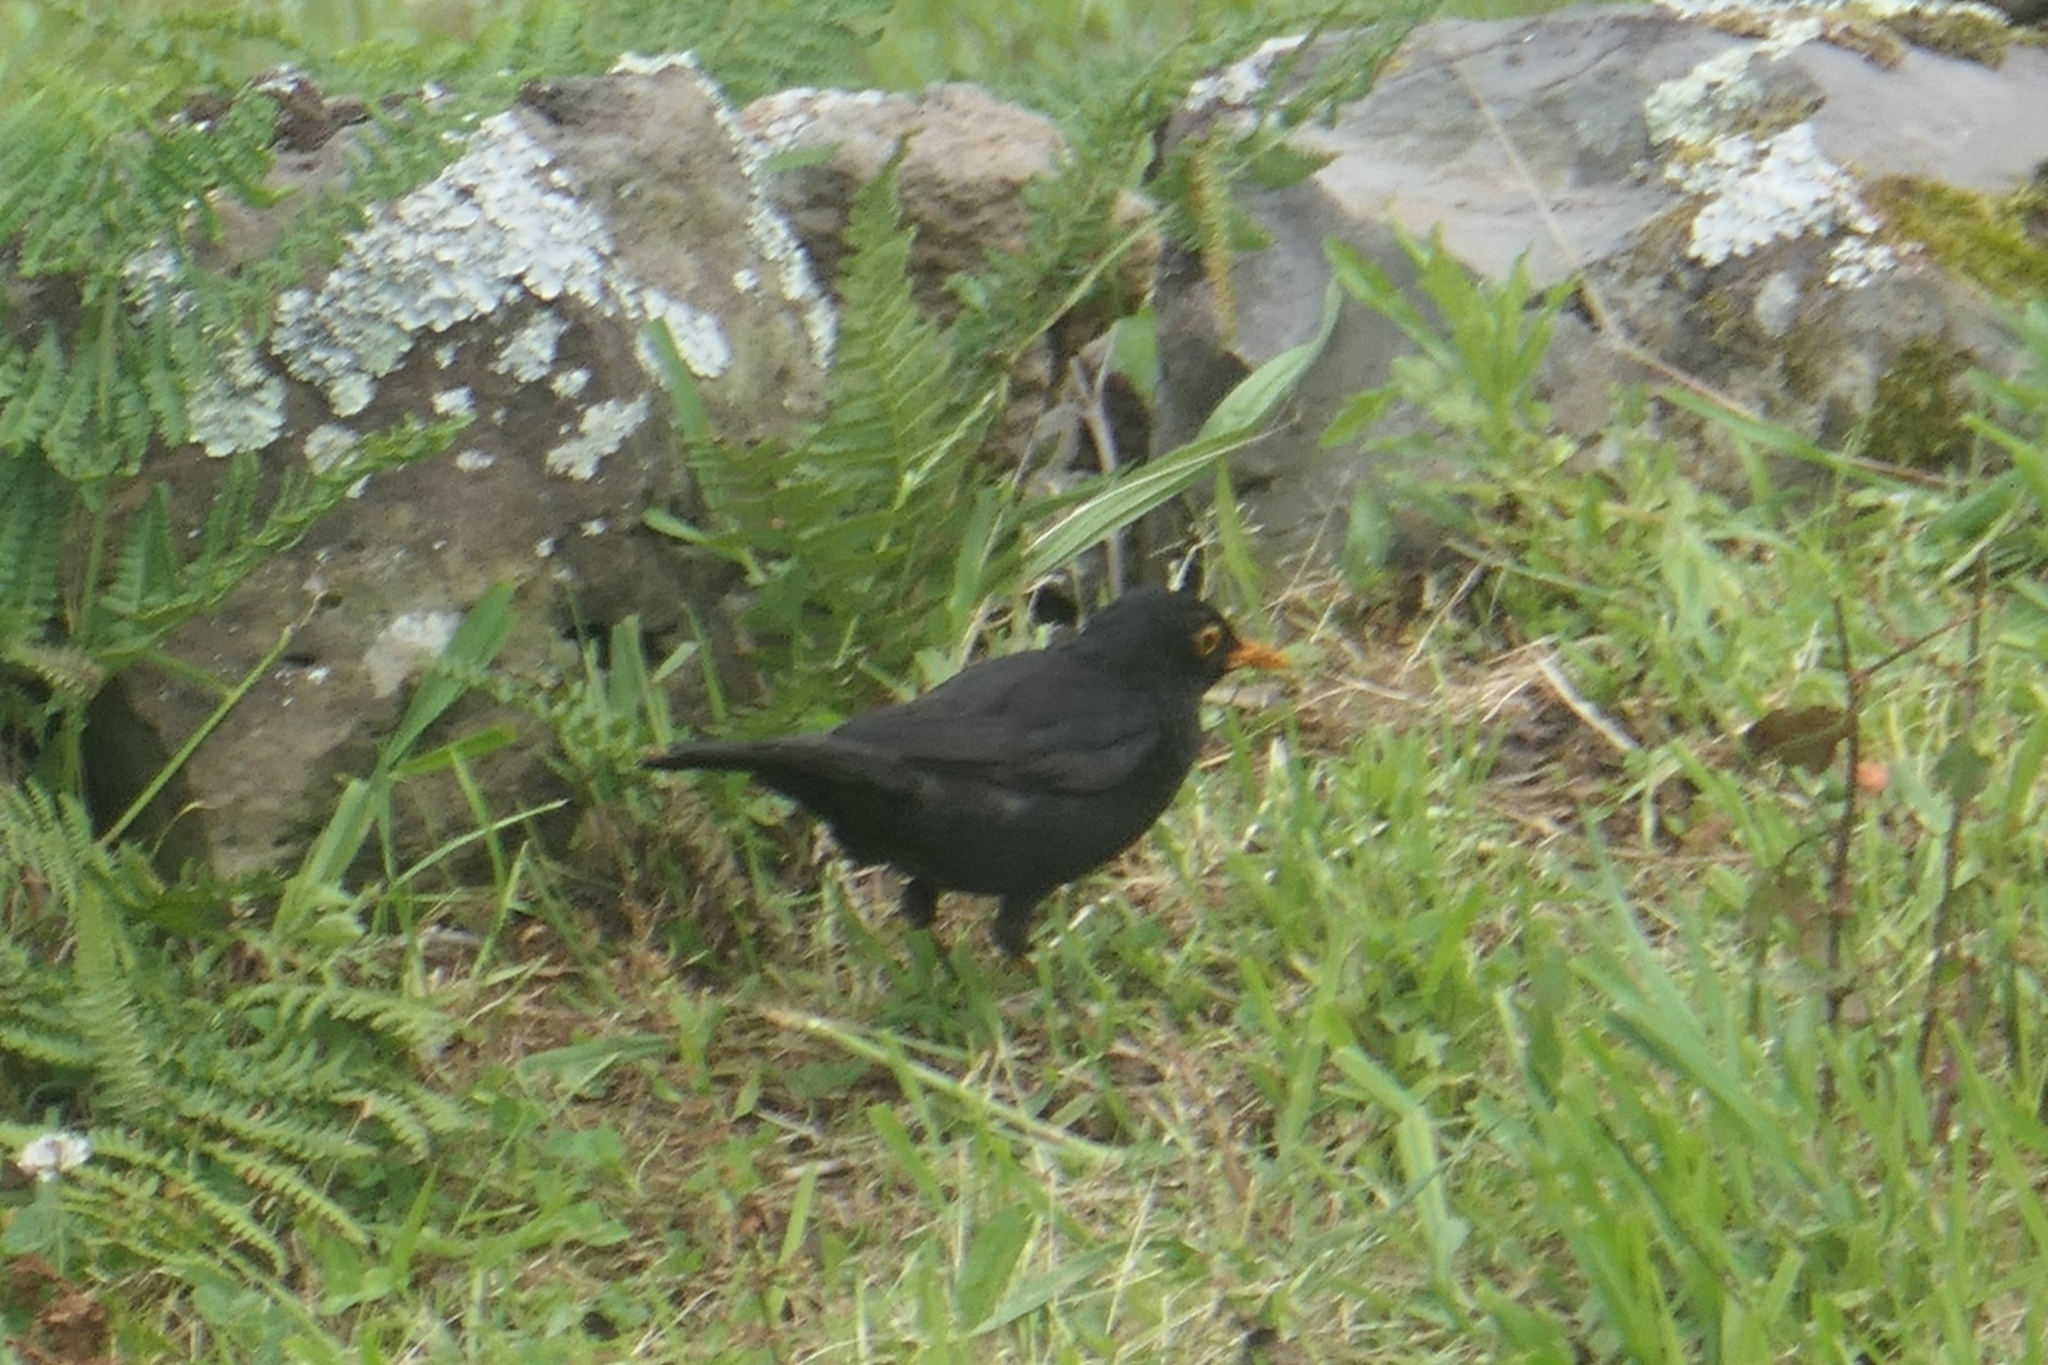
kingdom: Animalia
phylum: Chordata
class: Aves
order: Passeriformes
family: Turdidae
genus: Turdus
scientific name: Turdus merula
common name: Common blackbird
